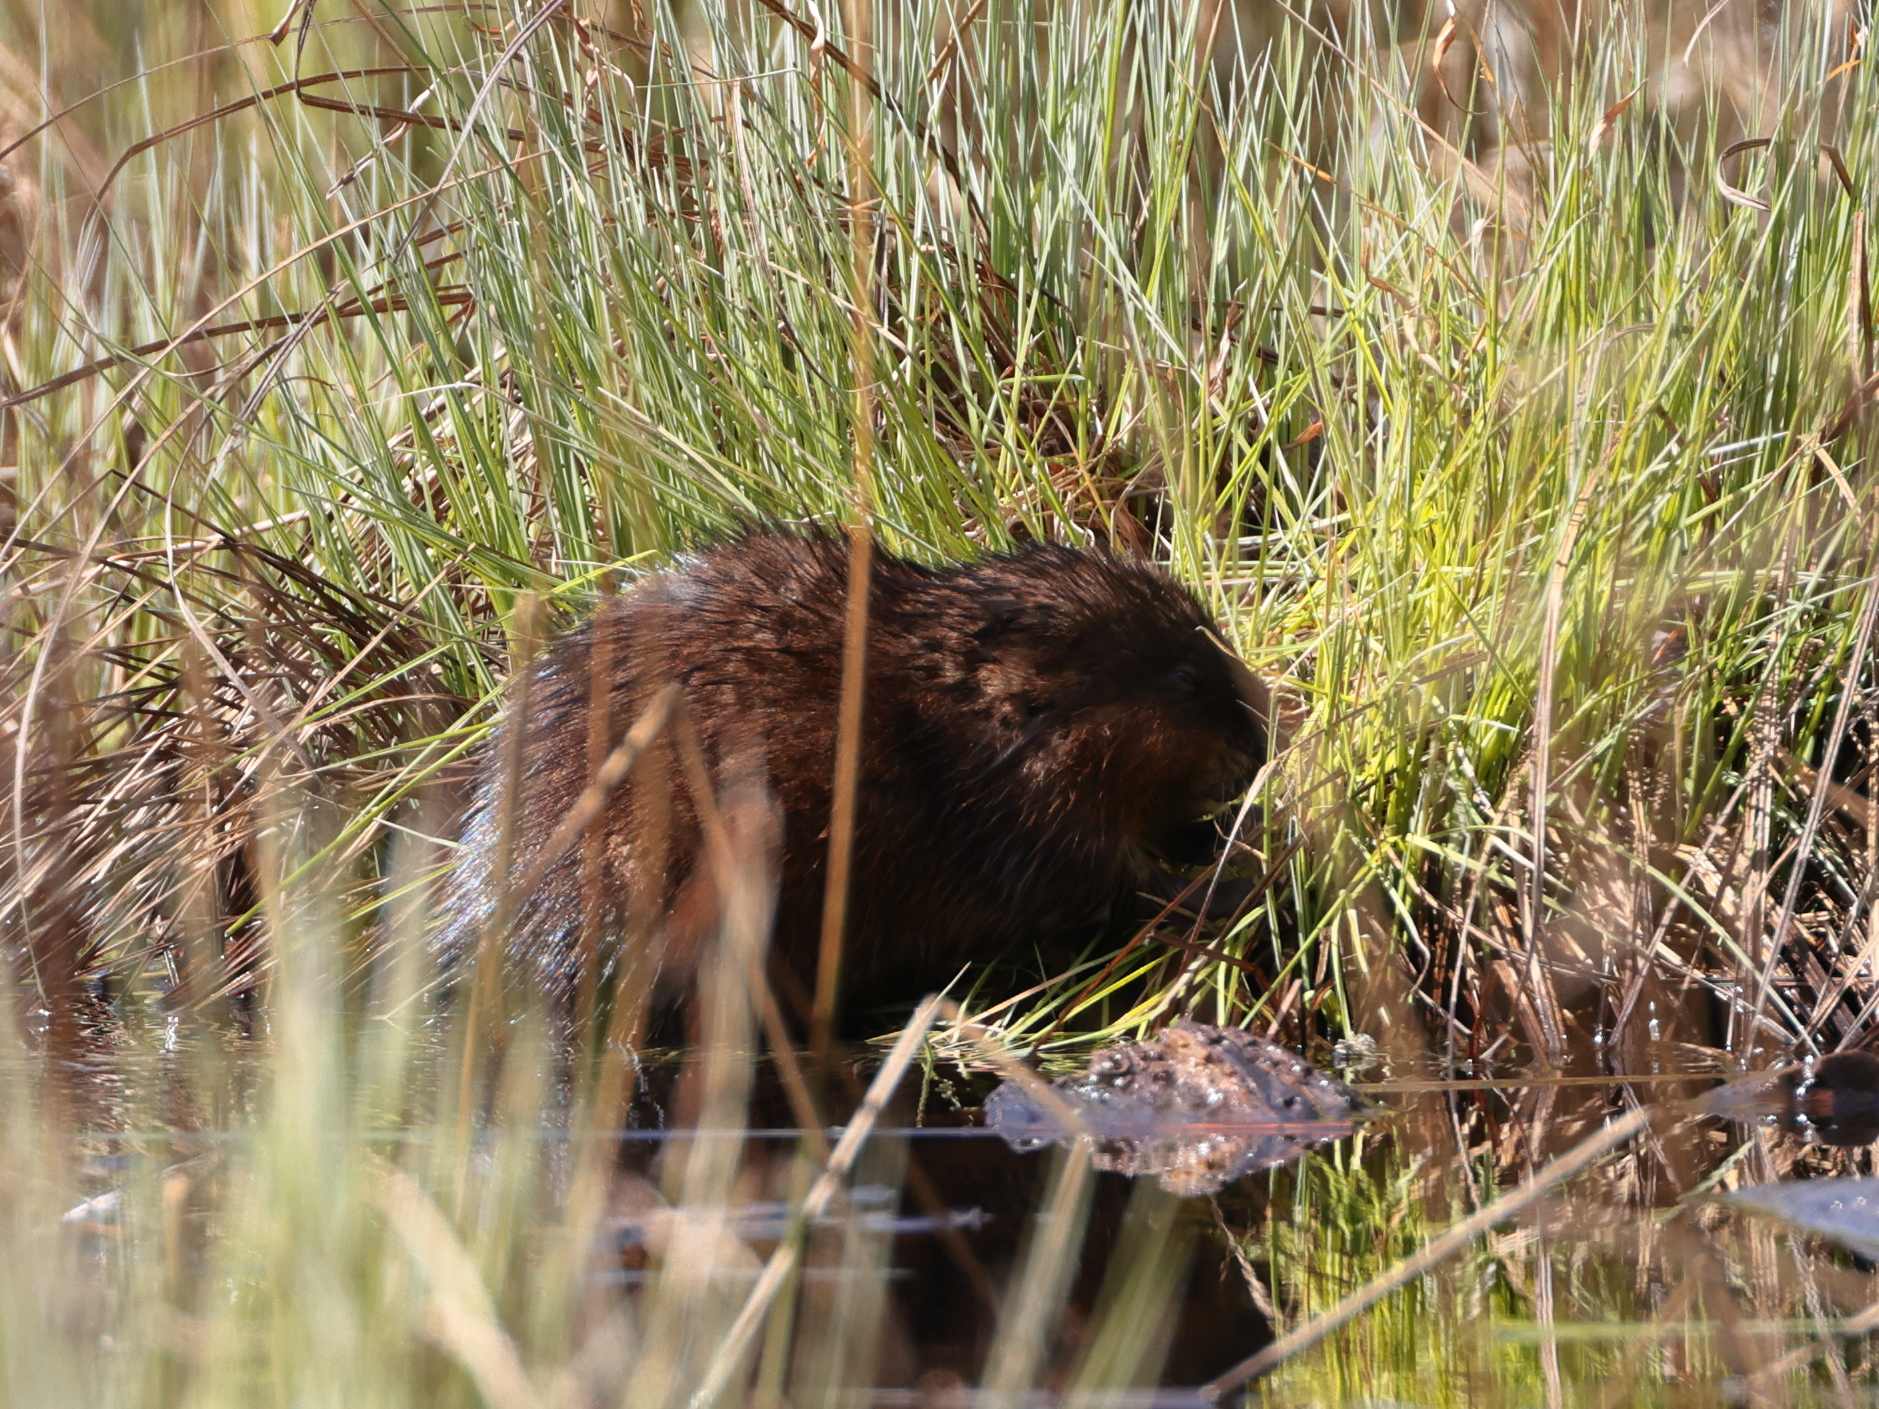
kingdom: Animalia
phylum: Chordata
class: Mammalia
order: Rodentia
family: Cricetidae
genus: Ondatra
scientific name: Ondatra zibethicus
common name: Muskrat
